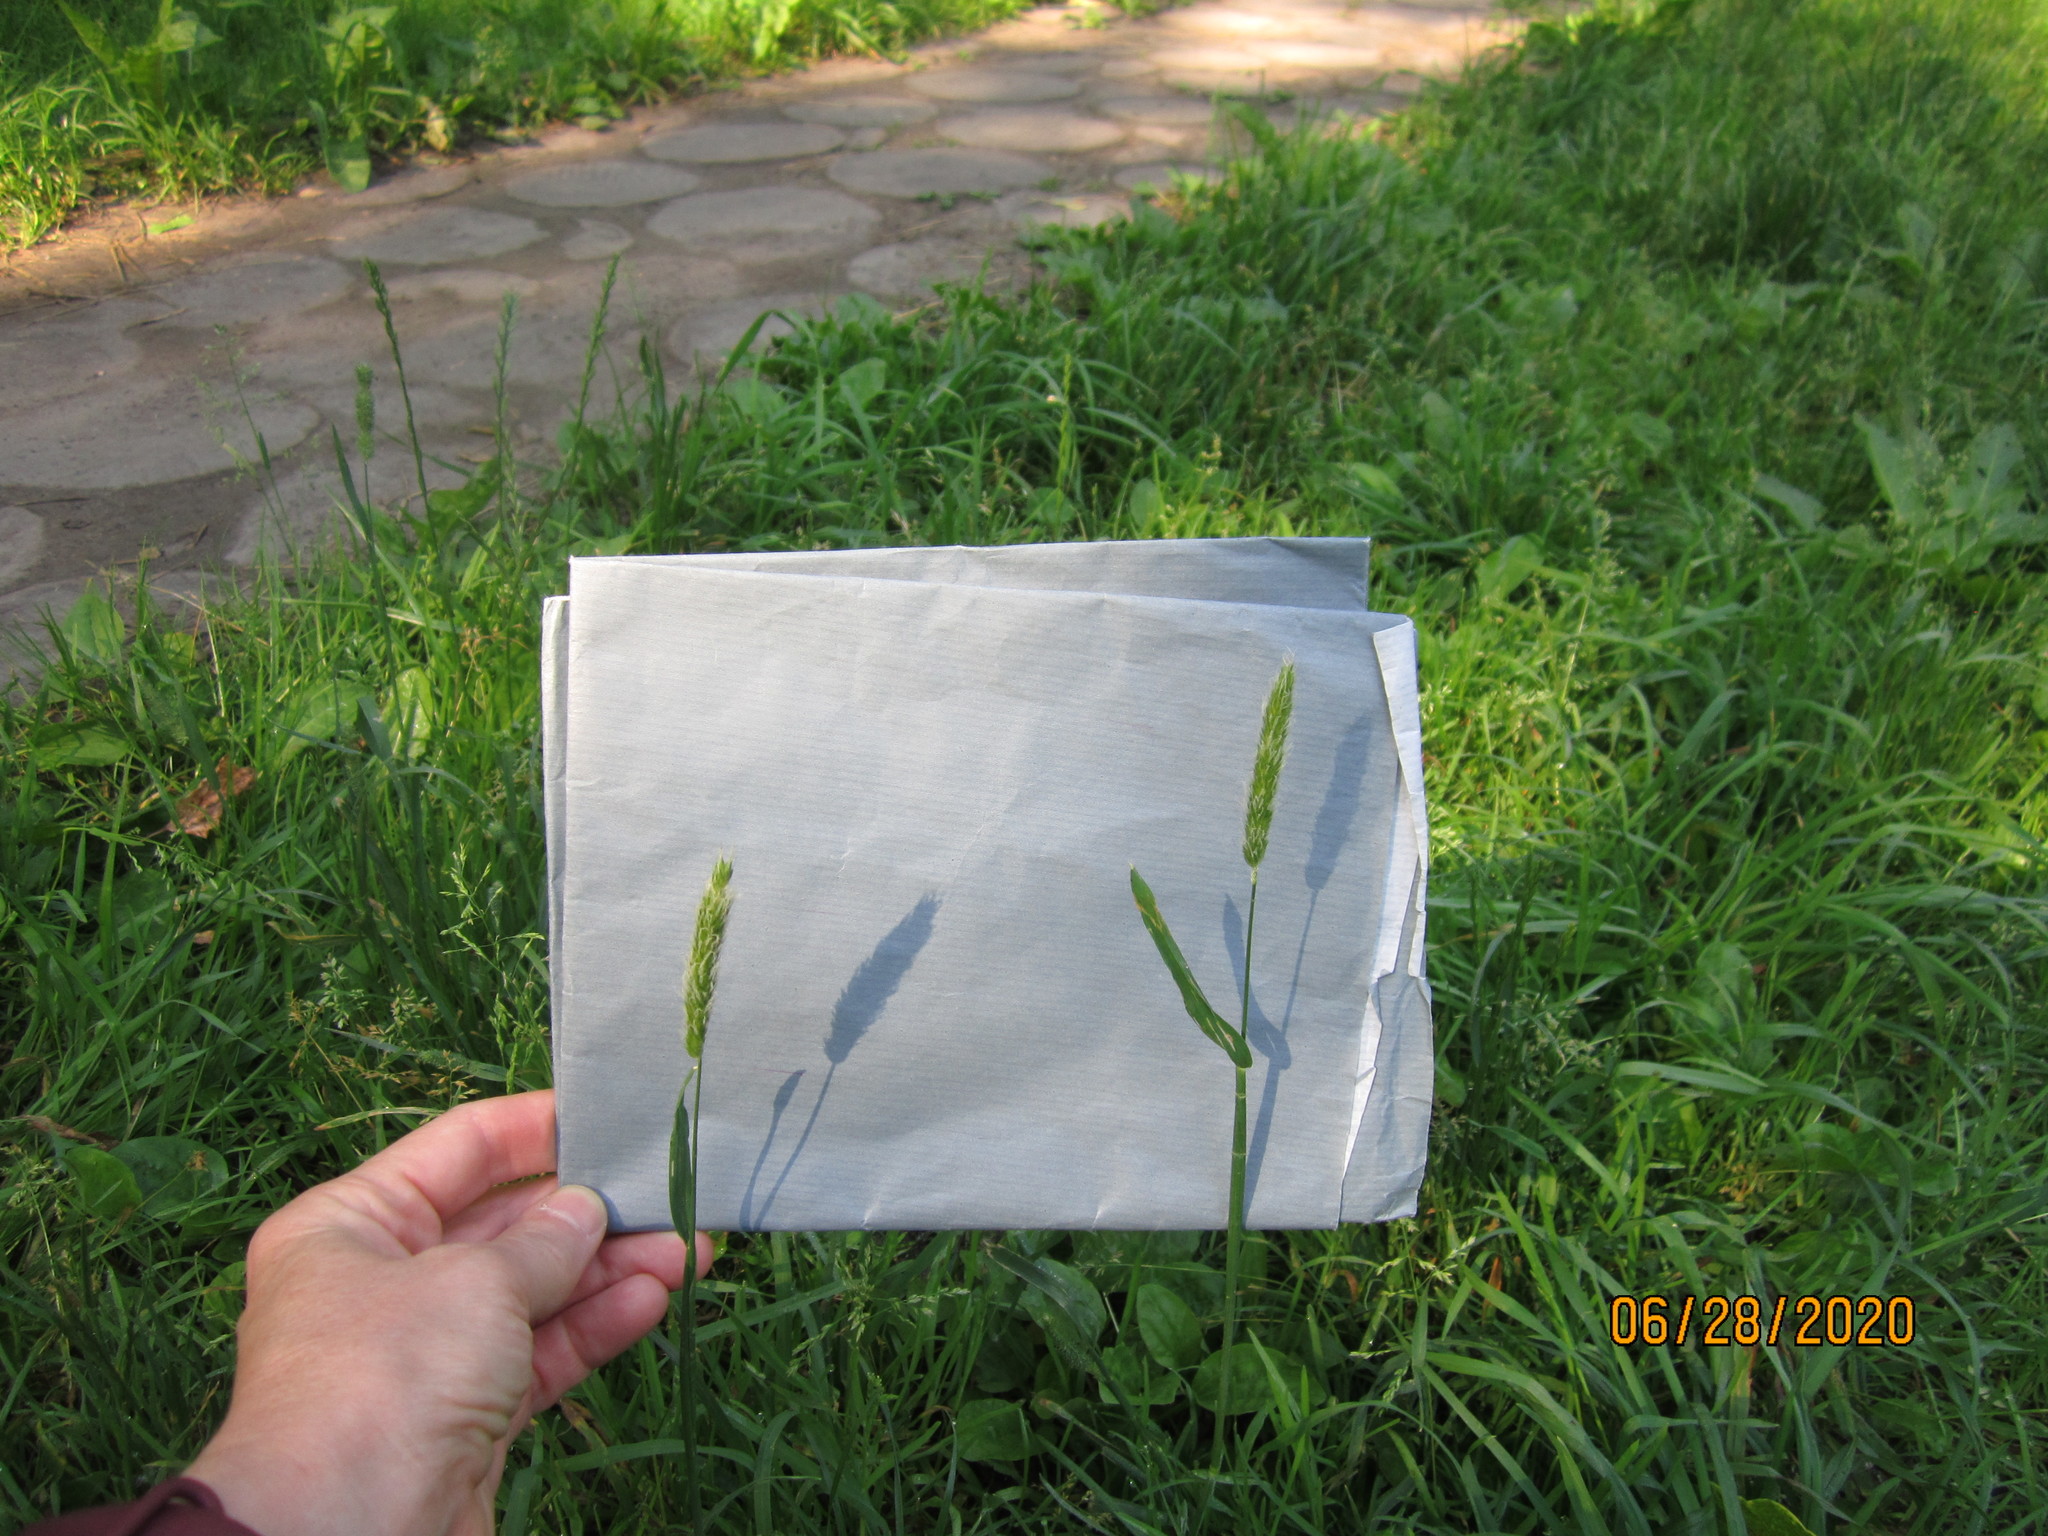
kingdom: Plantae
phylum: Tracheophyta
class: Liliopsida
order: Poales
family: Poaceae
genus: Alopecurus
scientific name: Alopecurus pratensis
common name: Meadow foxtail
